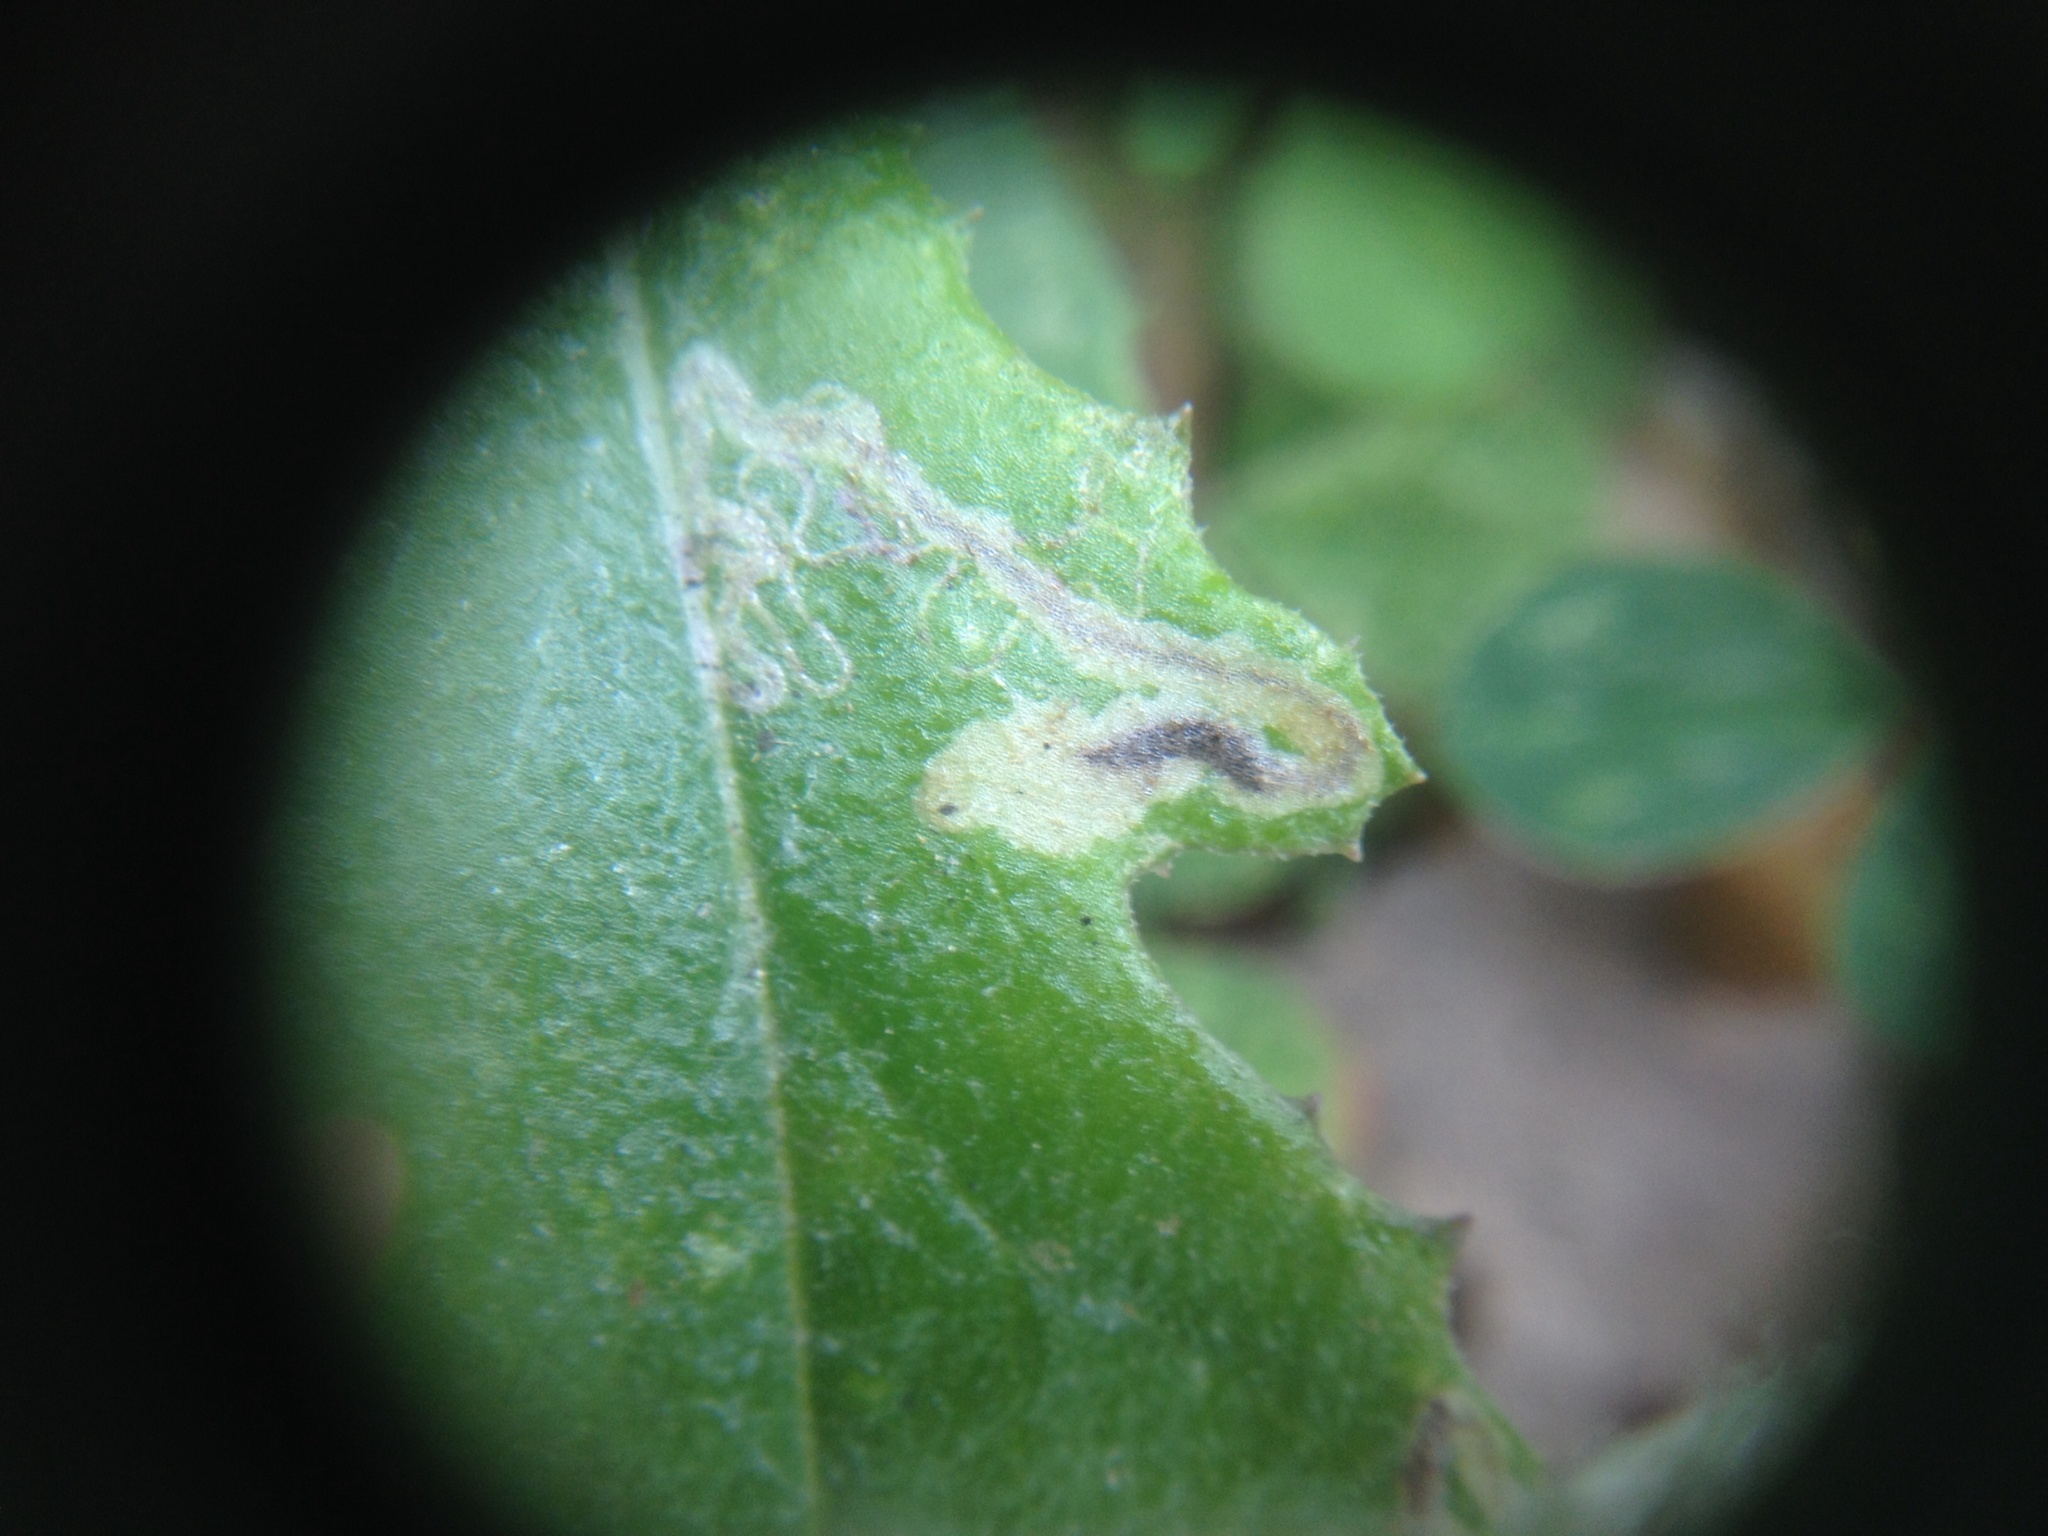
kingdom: Animalia
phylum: Arthropoda
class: Insecta
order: Lepidoptera
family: Nepticulidae
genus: Stigmella
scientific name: Stigmella ogygia
